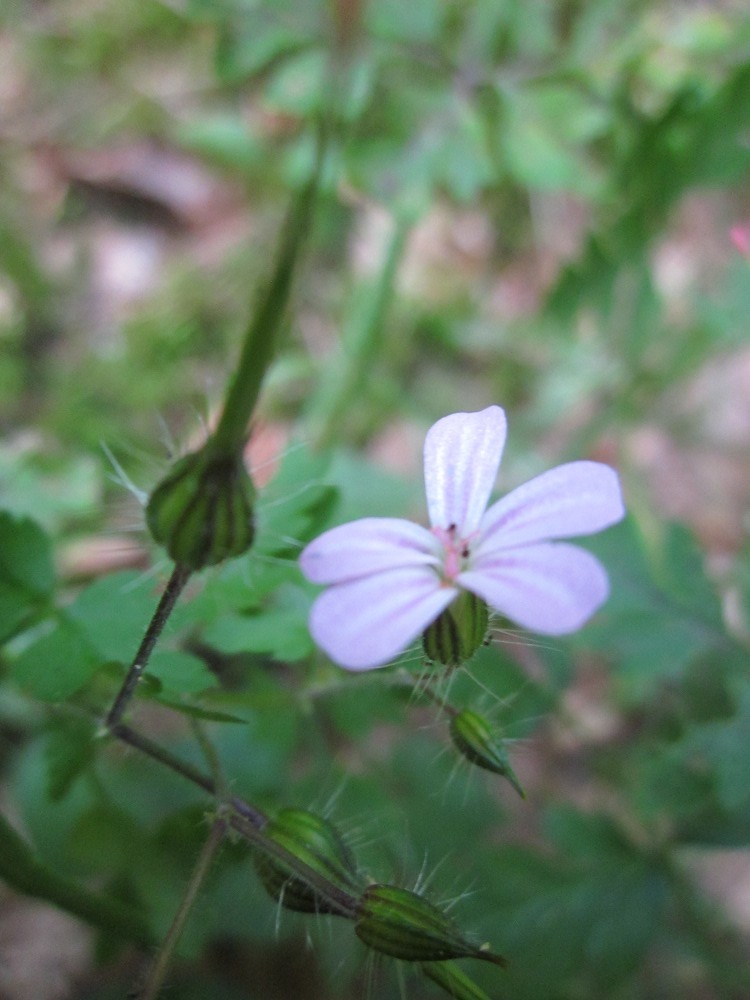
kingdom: Plantae
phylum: Tracheophyta
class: Magnoliopsida
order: Geraniales
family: Geraniaceae
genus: Geranium
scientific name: Geranium robertianum
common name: Herb-robert
